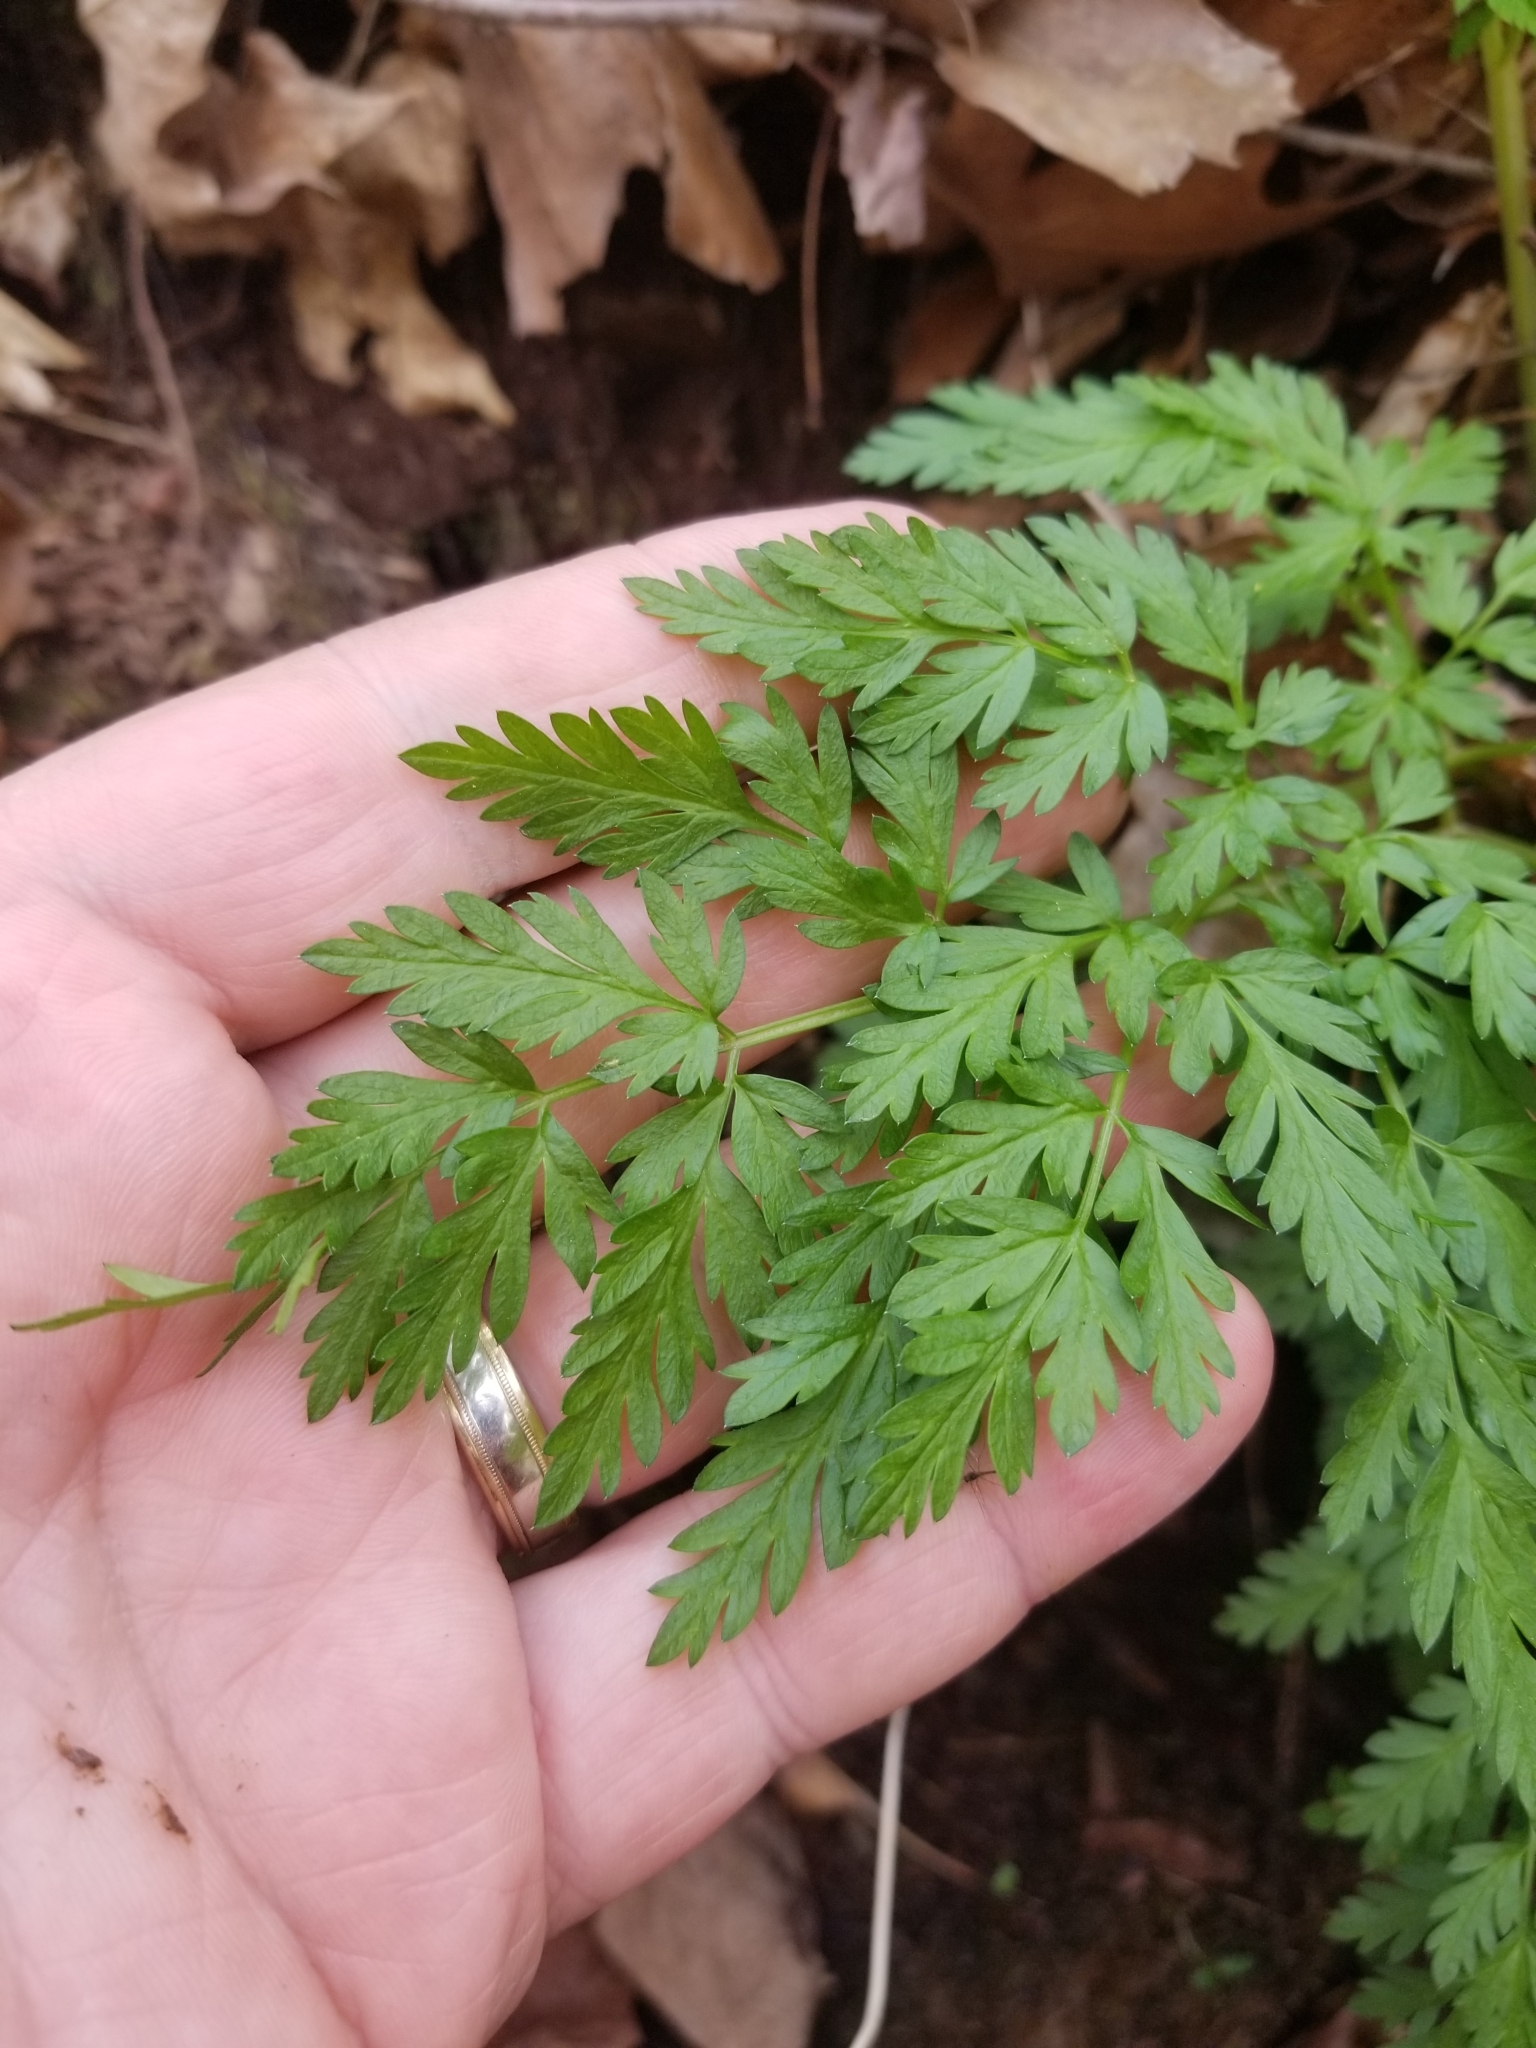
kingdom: Plantae
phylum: Tracheophyta
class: Magnoliopsida
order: Apiales
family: Apiaceae
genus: Conium
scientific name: Conium maculatum
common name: Hemlock
